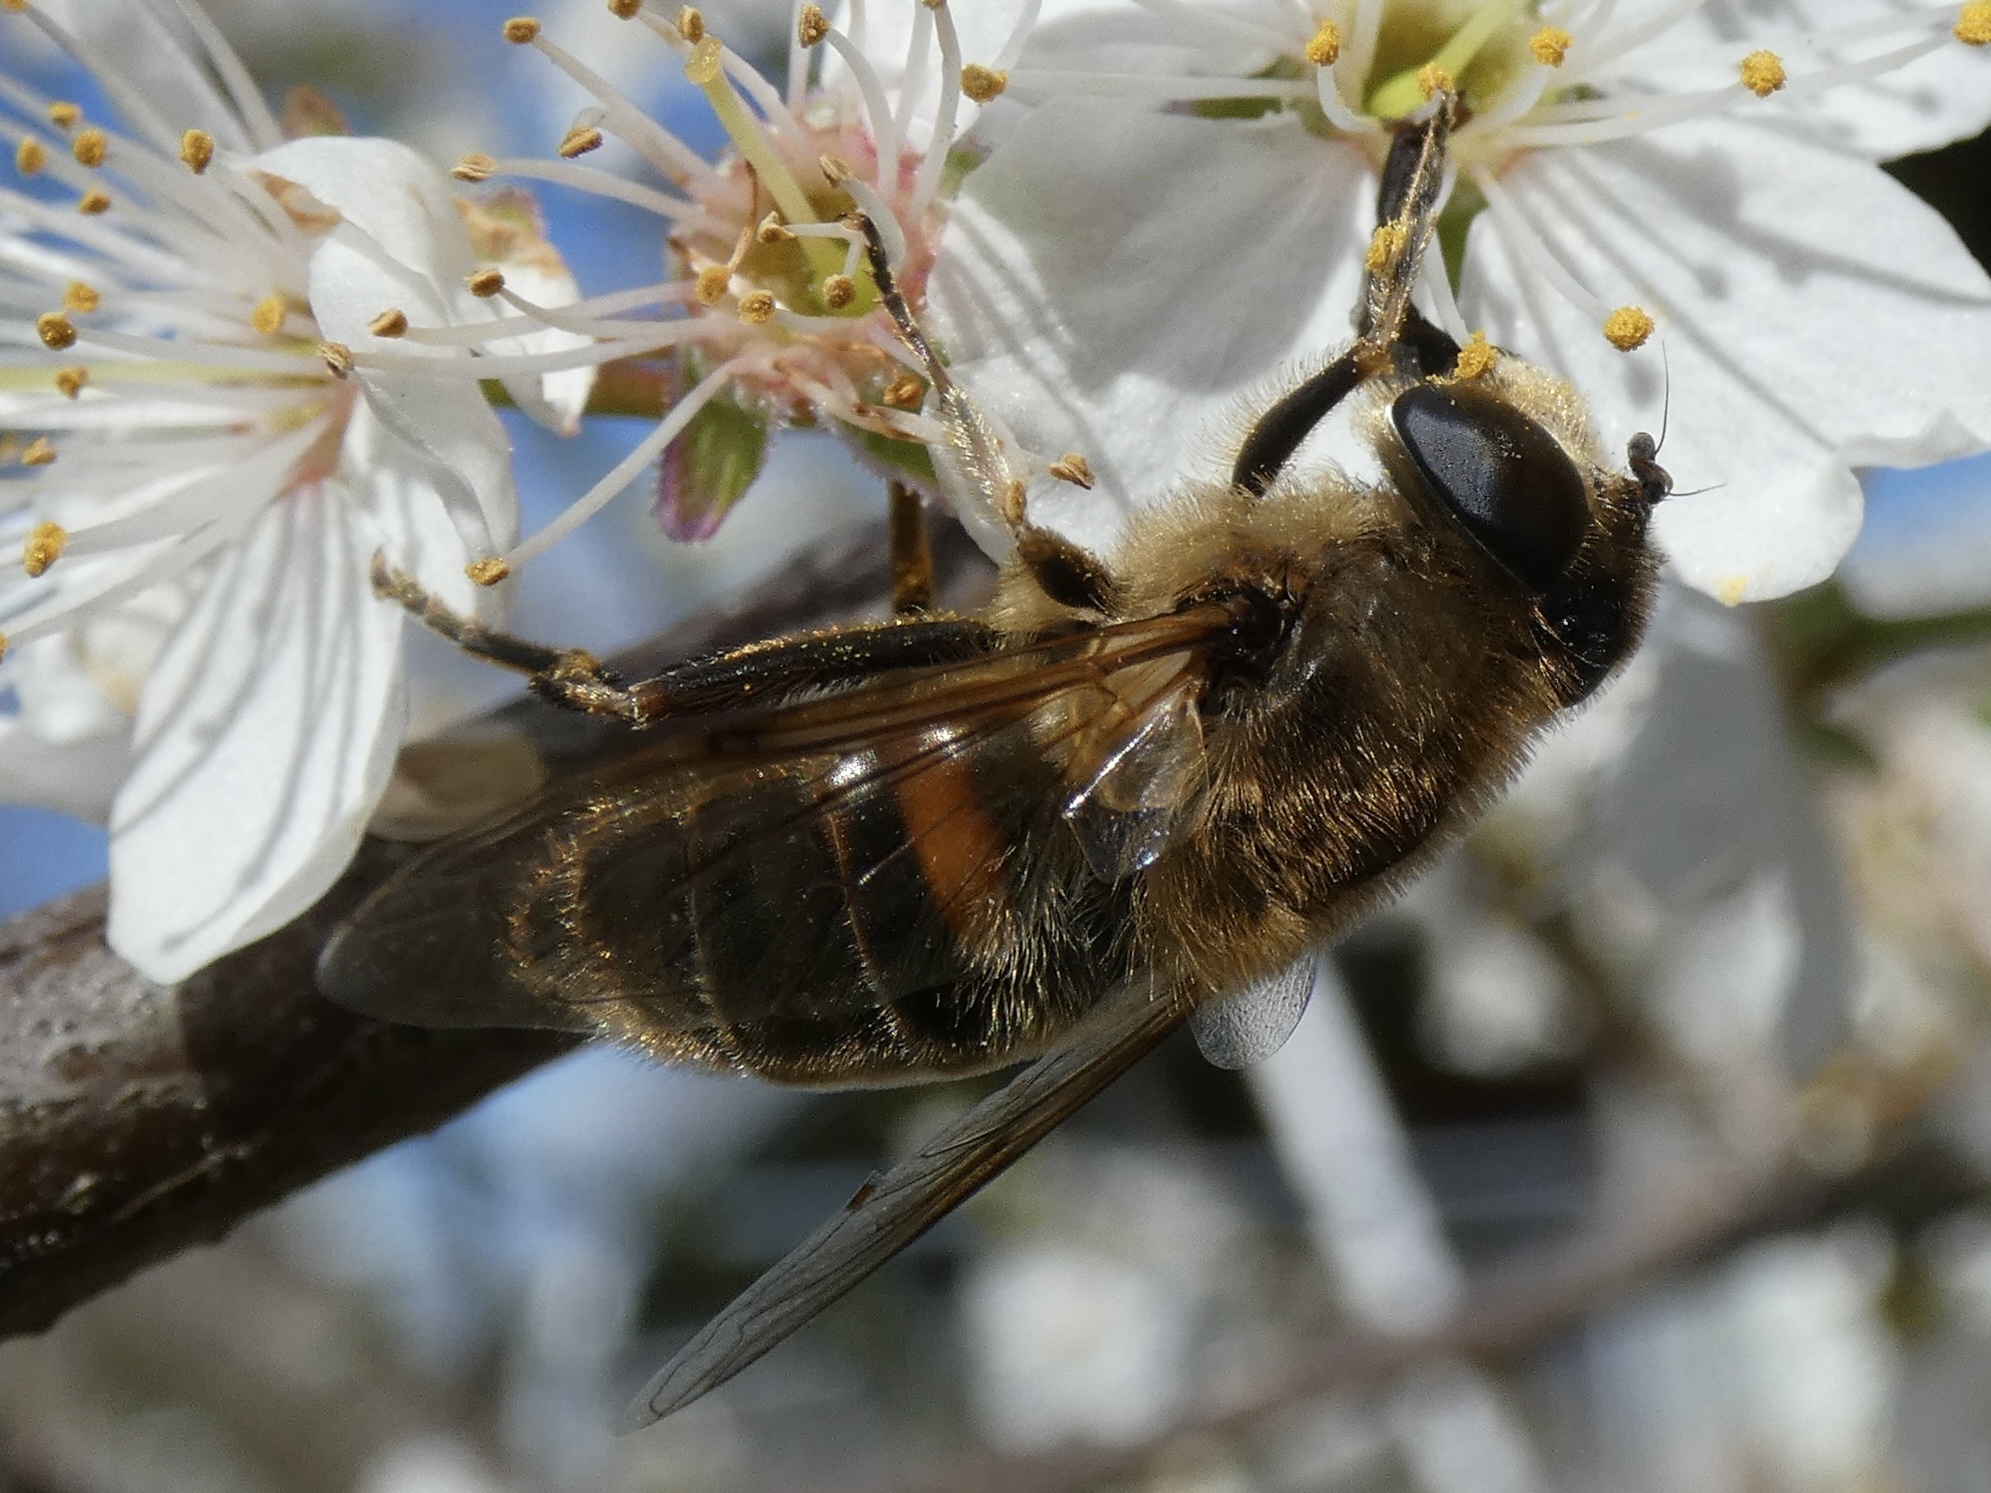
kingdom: Animalia
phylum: Arthropoda
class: Insecta
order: Diptera
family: Syrphidae
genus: Eristalis
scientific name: Eristalis tenax
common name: Drone fly
